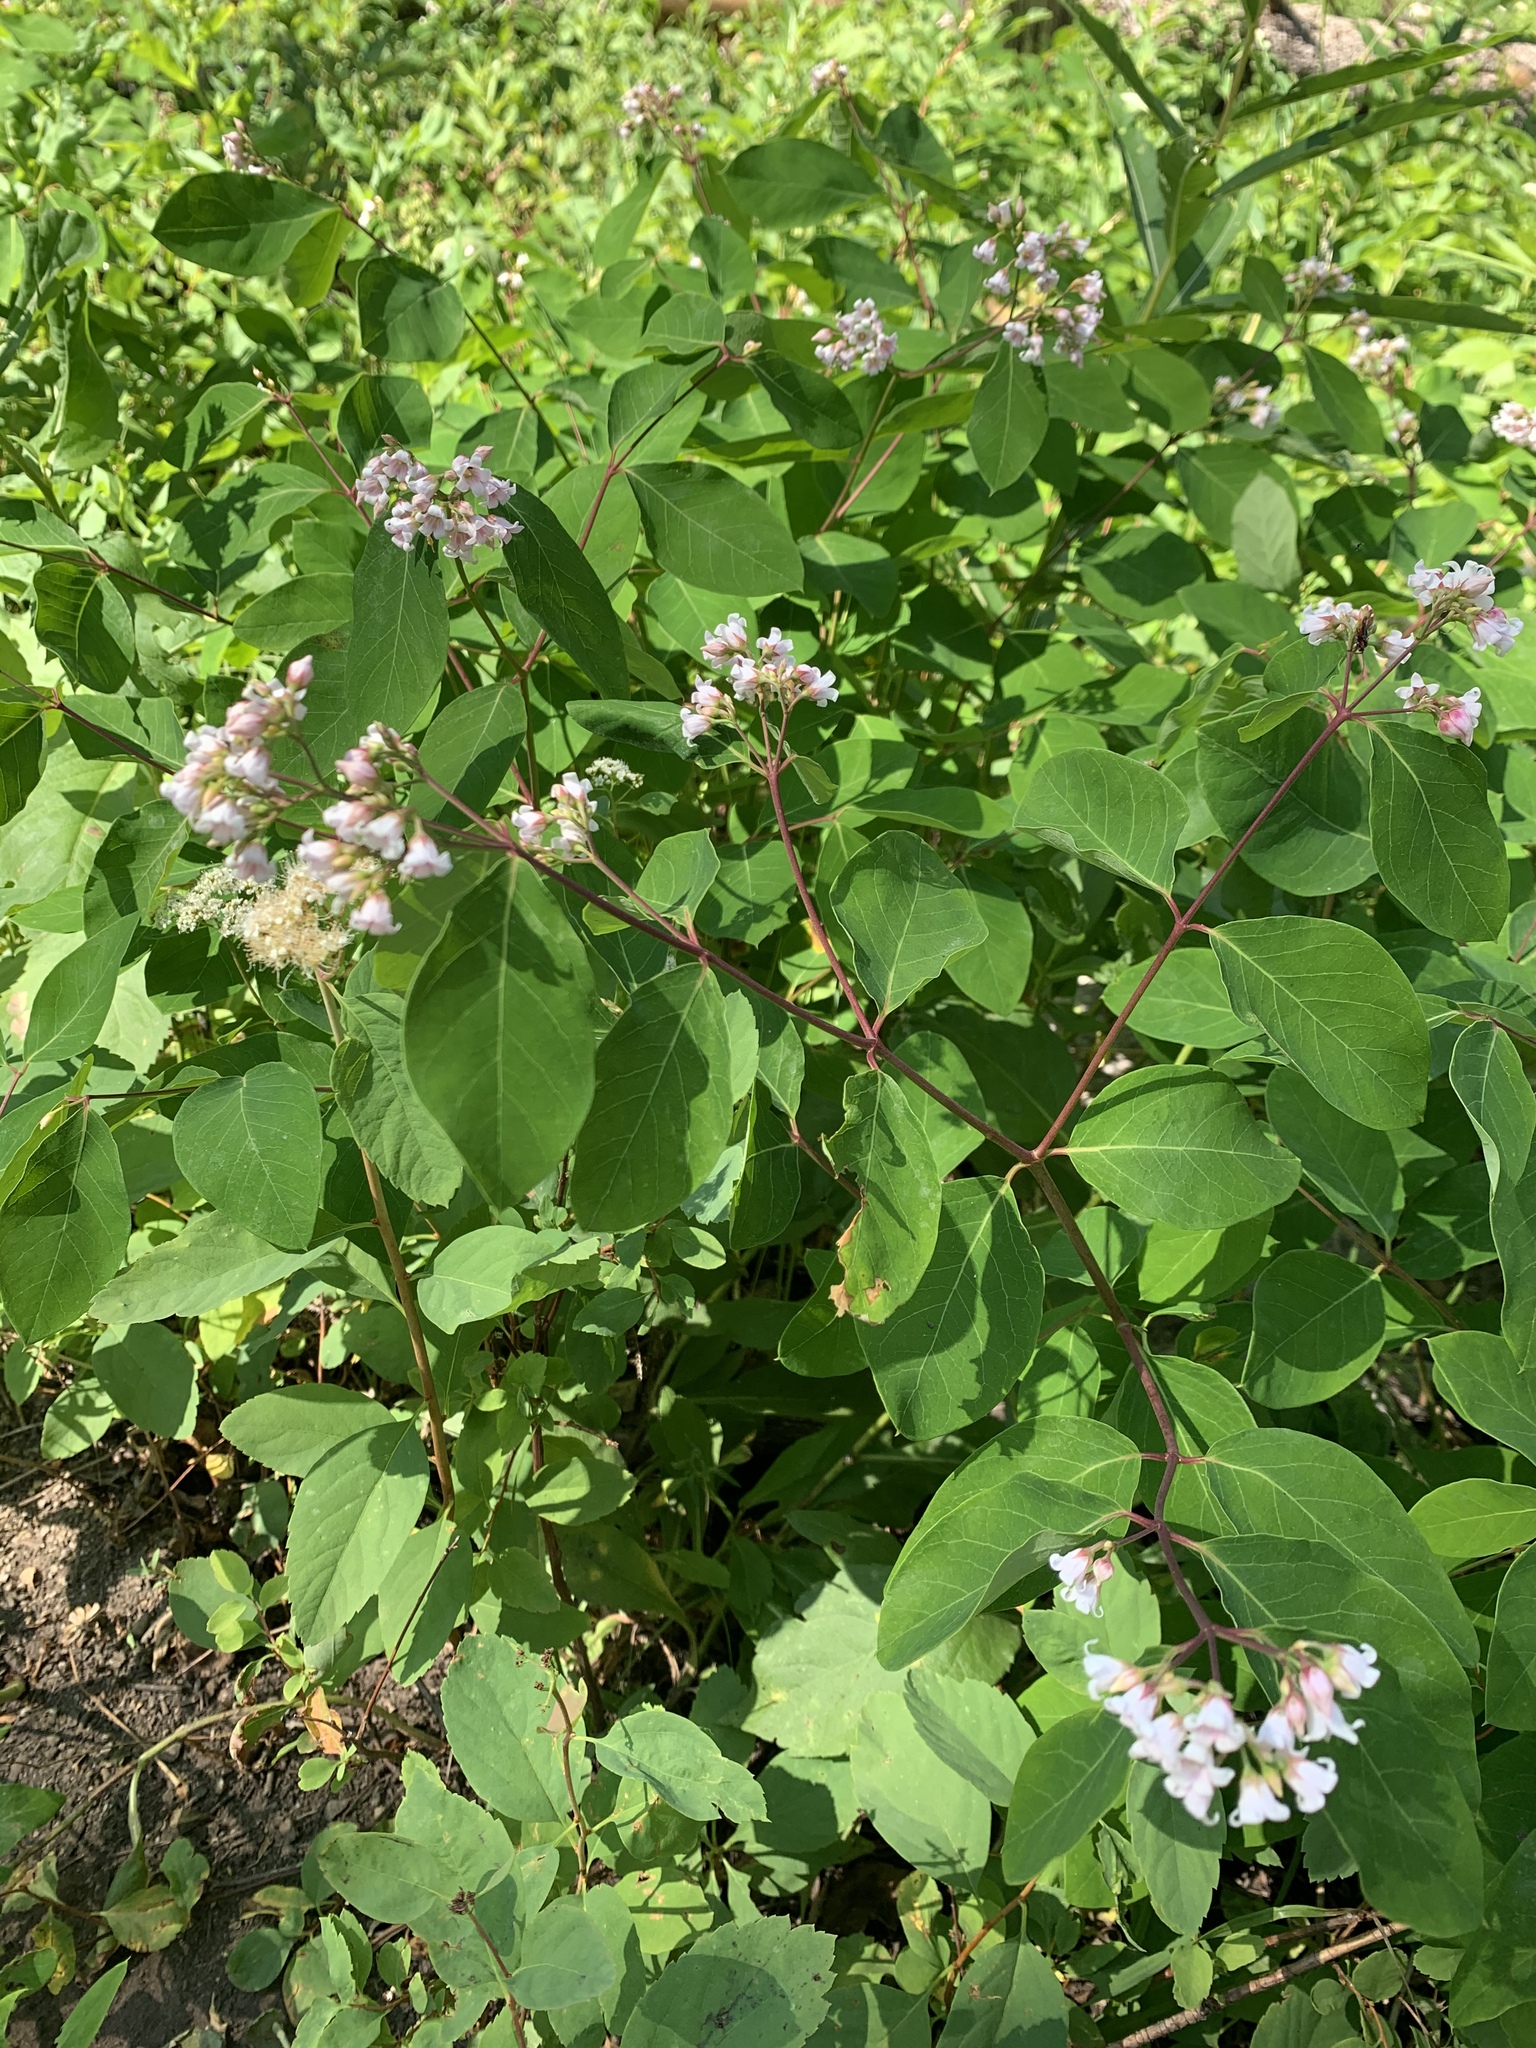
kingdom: Plantae
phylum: Tracheophyta
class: Magnoliopsida
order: Gentianales
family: Apocynaceae
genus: Apocynum
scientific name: Apocynum androsaemifolium
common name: Spreading dogbane
